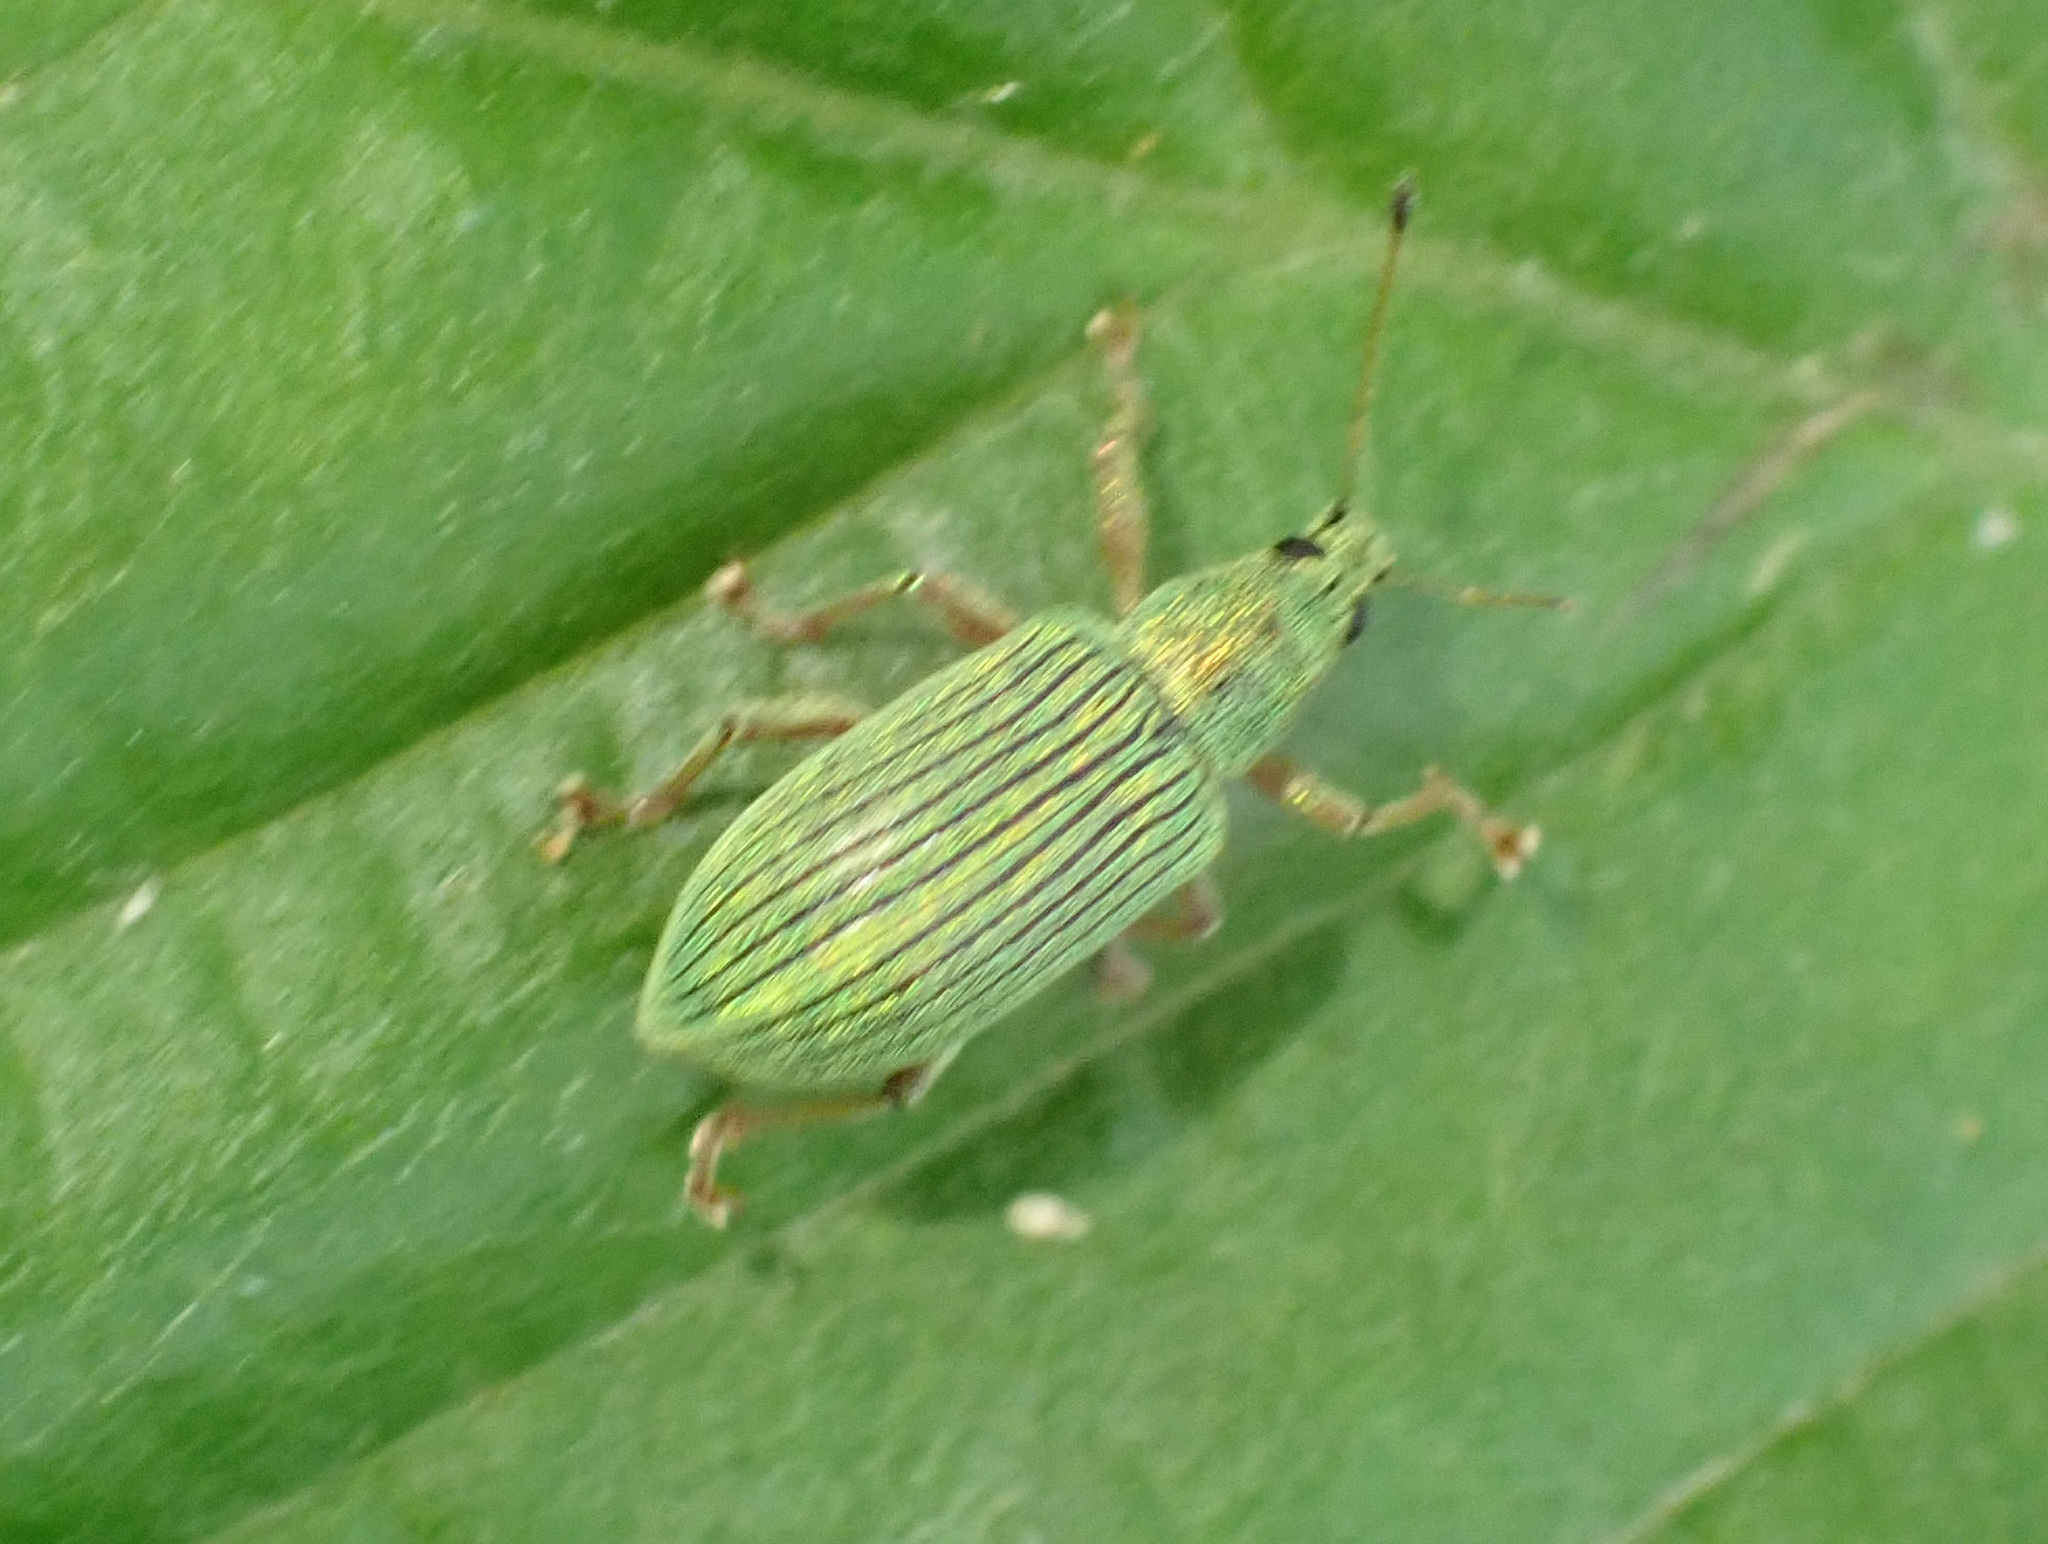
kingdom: Animalia
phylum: Arthropoda
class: Insecta
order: Coleoptera
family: Curculionidae
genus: Polydrusus
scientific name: Polydrusus formosus
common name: Weevil
